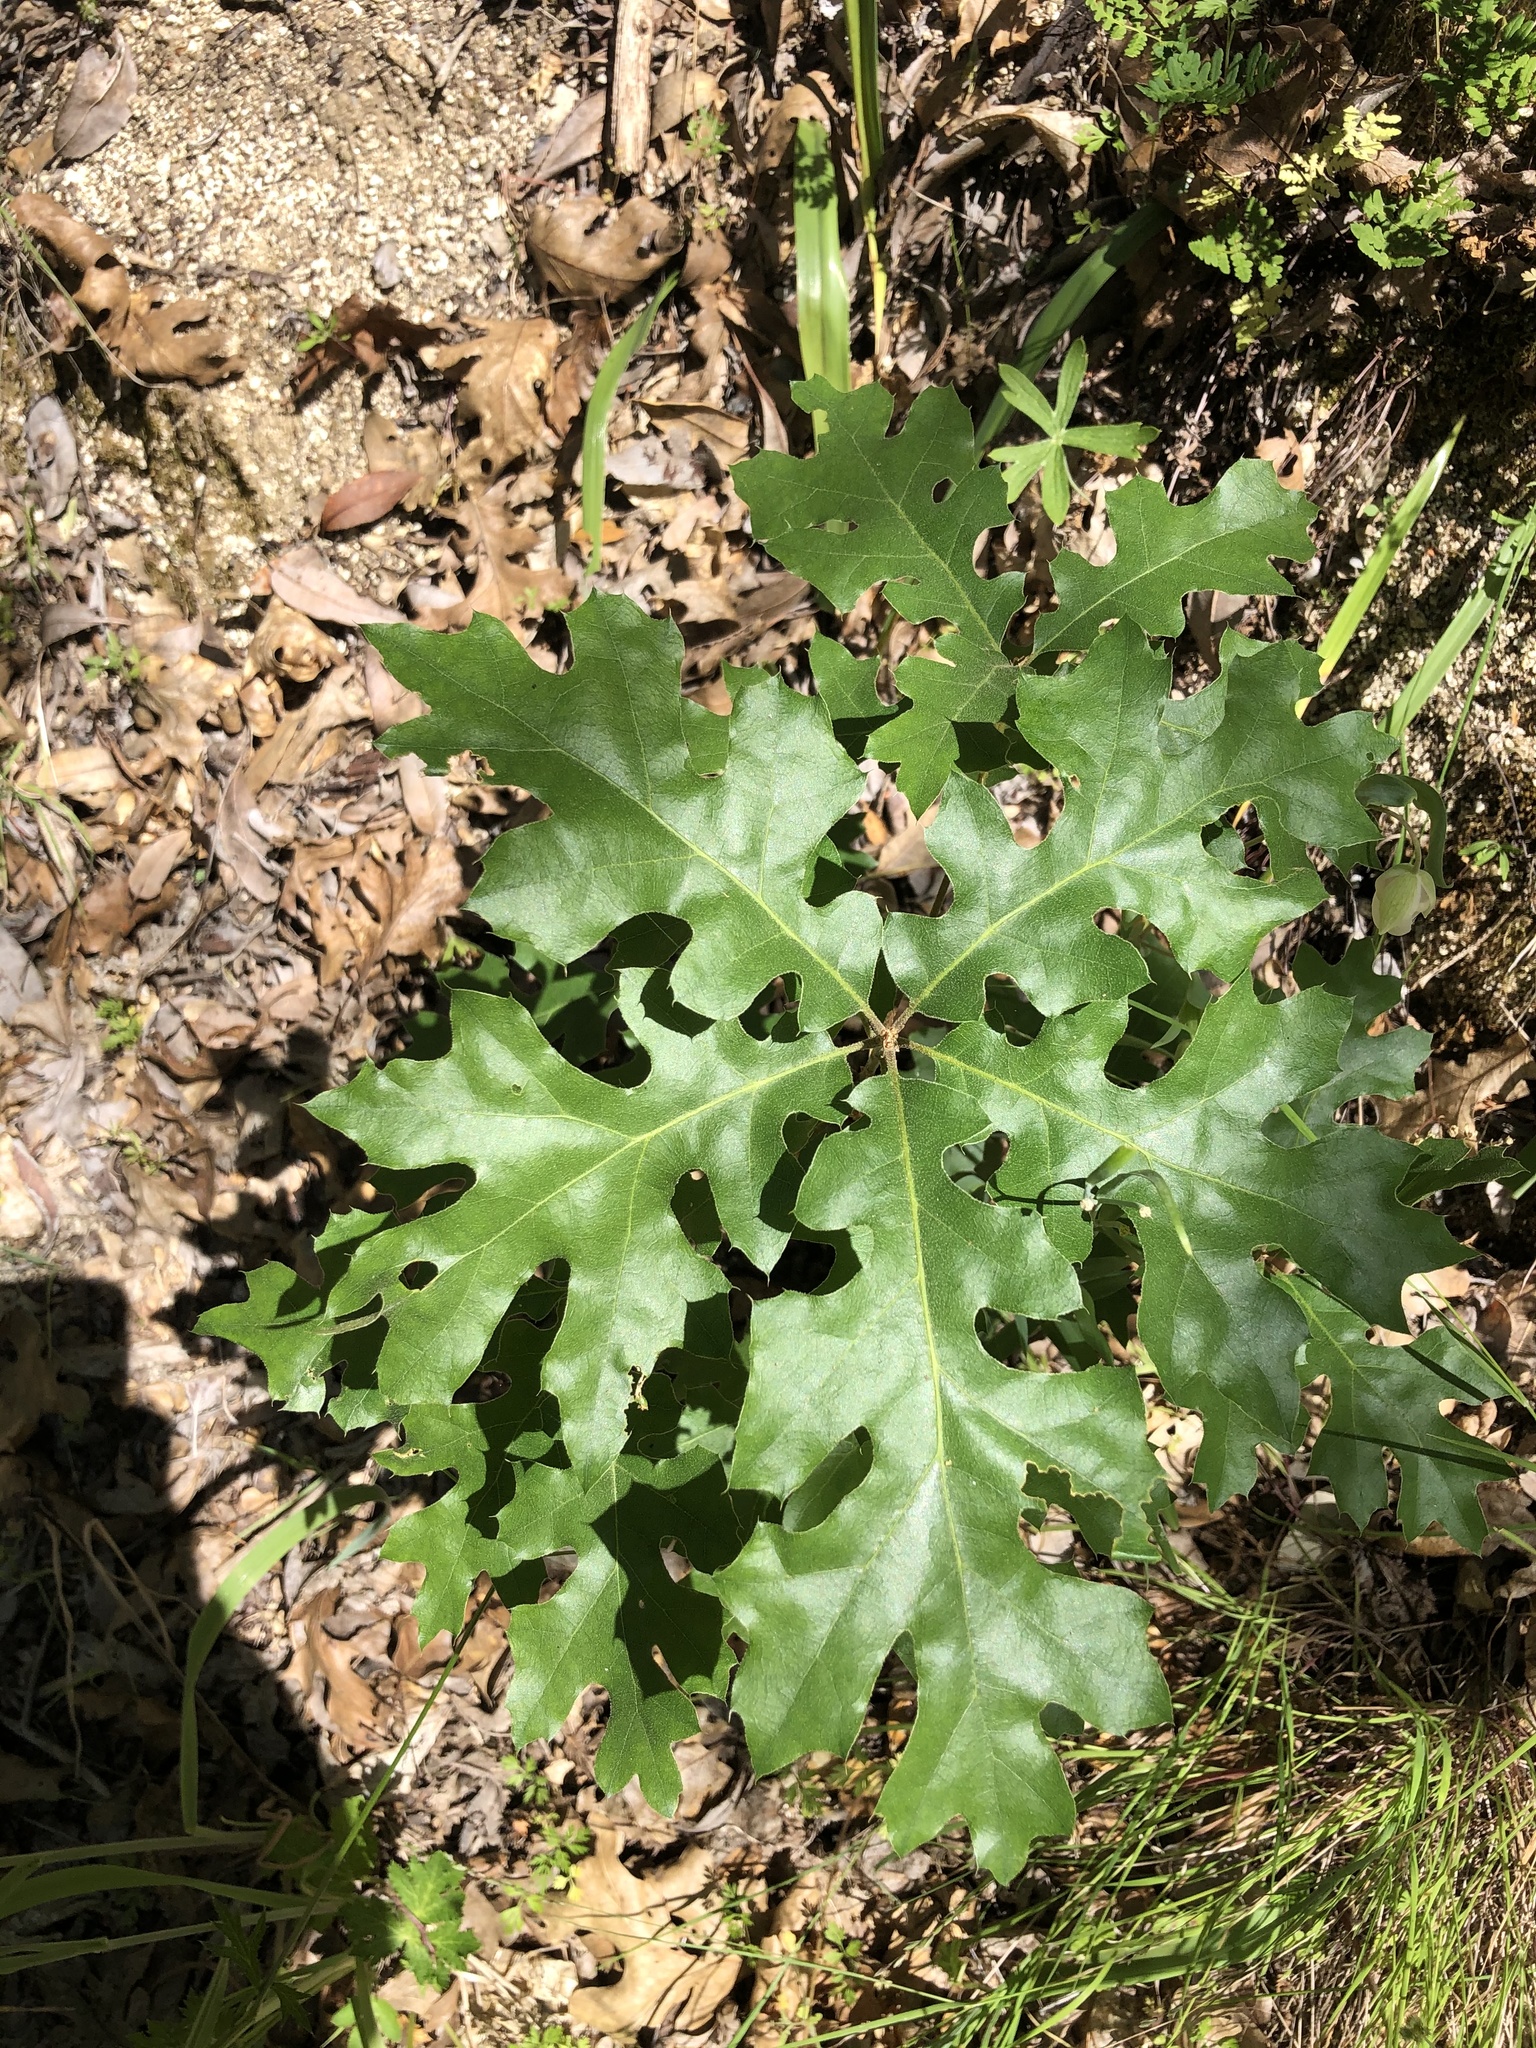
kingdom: Plantae
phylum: Tracheophyta
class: Magnoliopsida
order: Fagales
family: Fagaceae
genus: Quercus
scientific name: Quercus kelloggii
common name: California black oak
